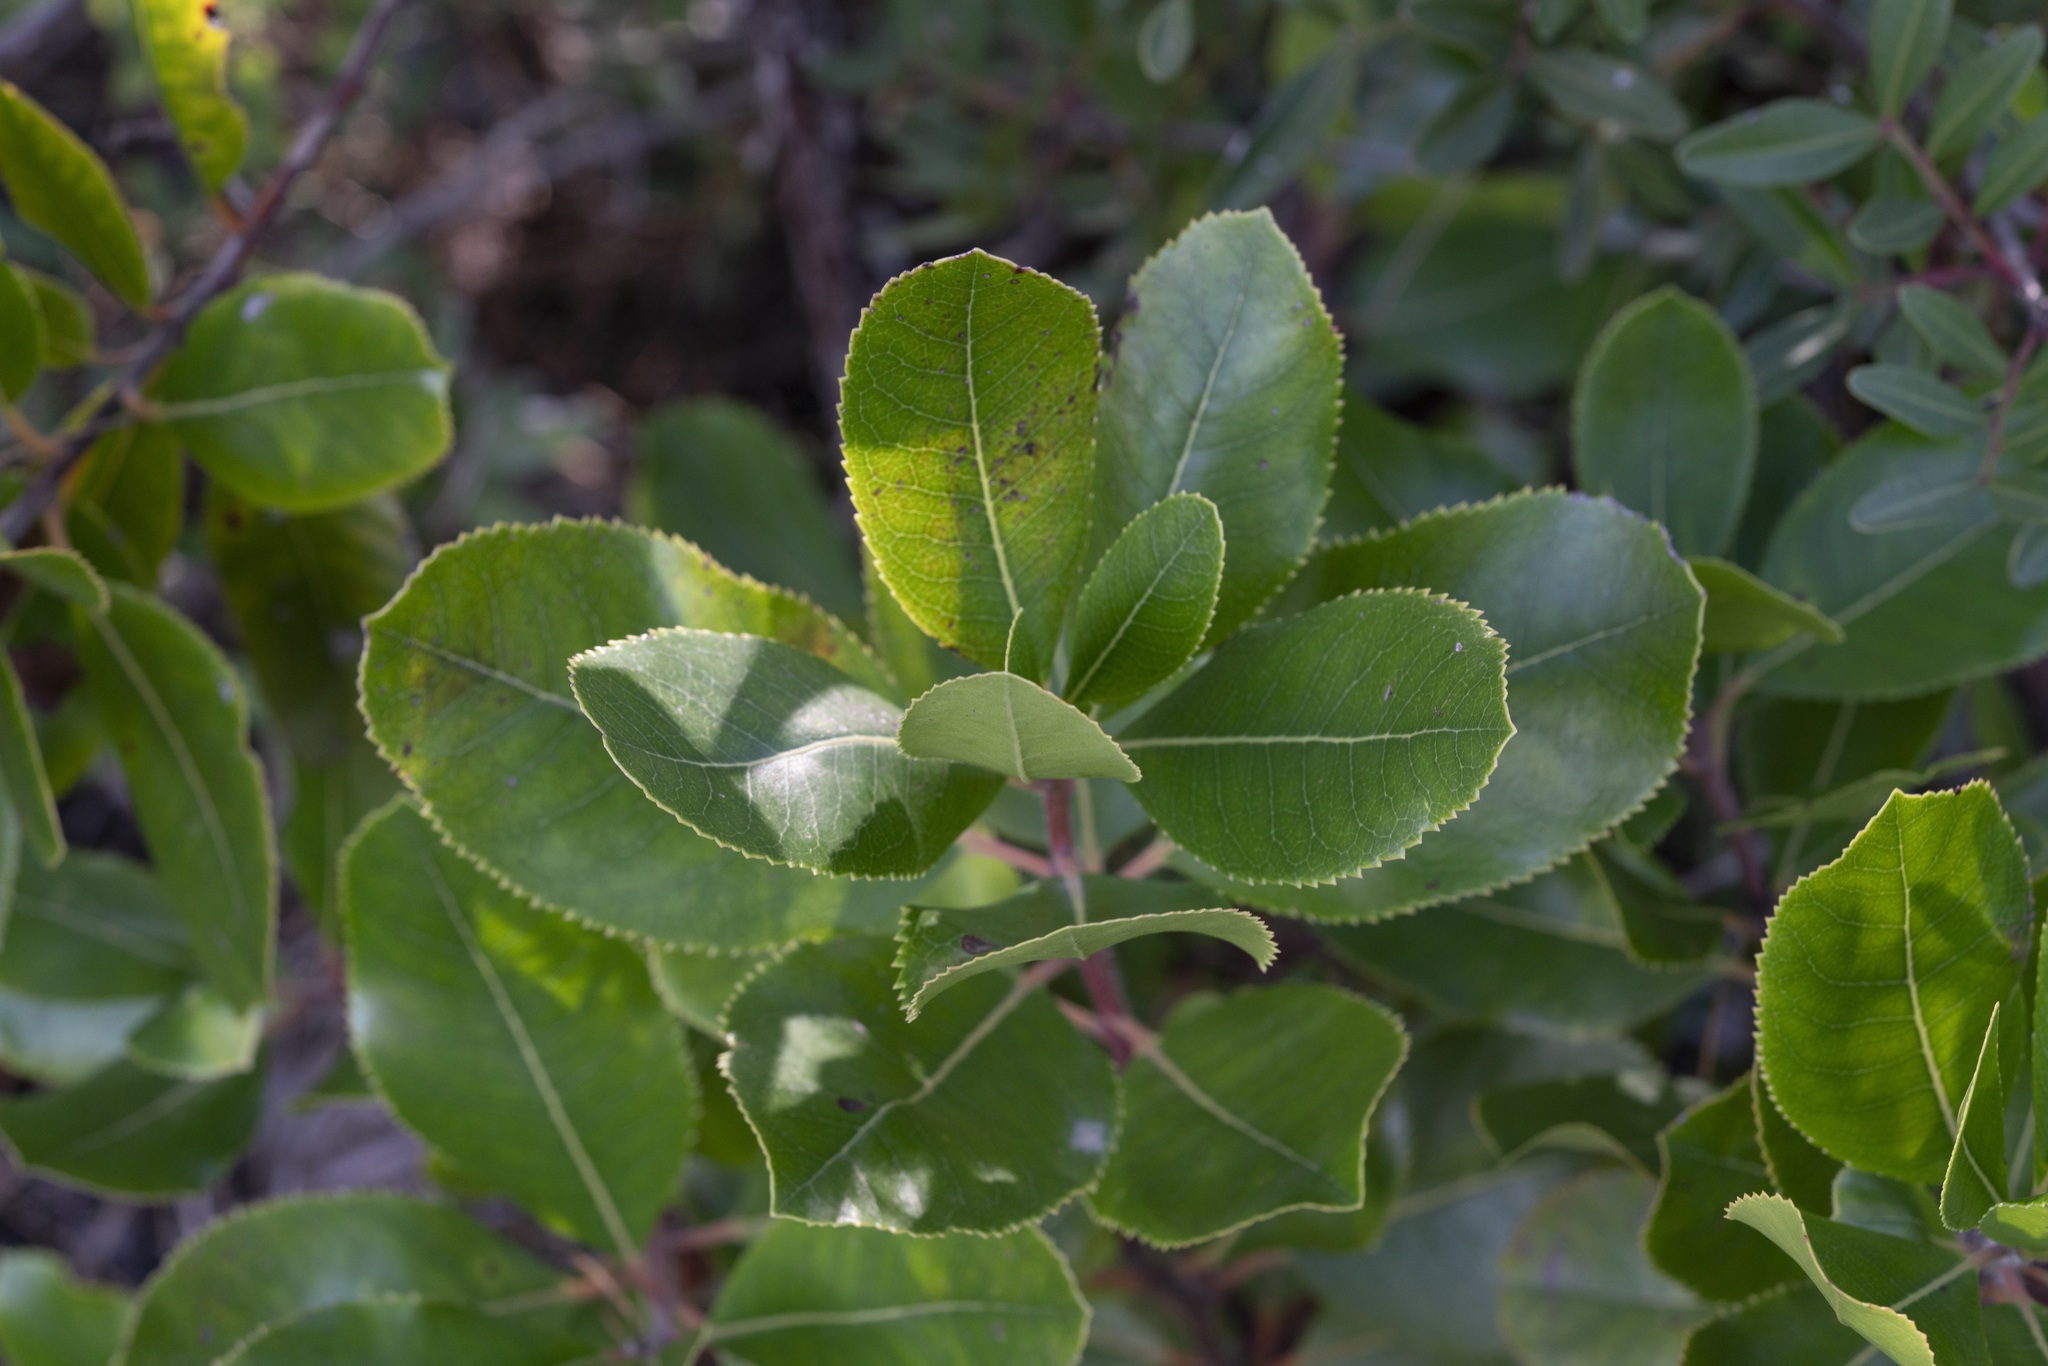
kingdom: Plantae
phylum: Tracheophyta
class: Magnoliopsida
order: Ericales
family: Ericaceae
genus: Arbutus
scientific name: Arbutus unedo
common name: Strawberry-tree
